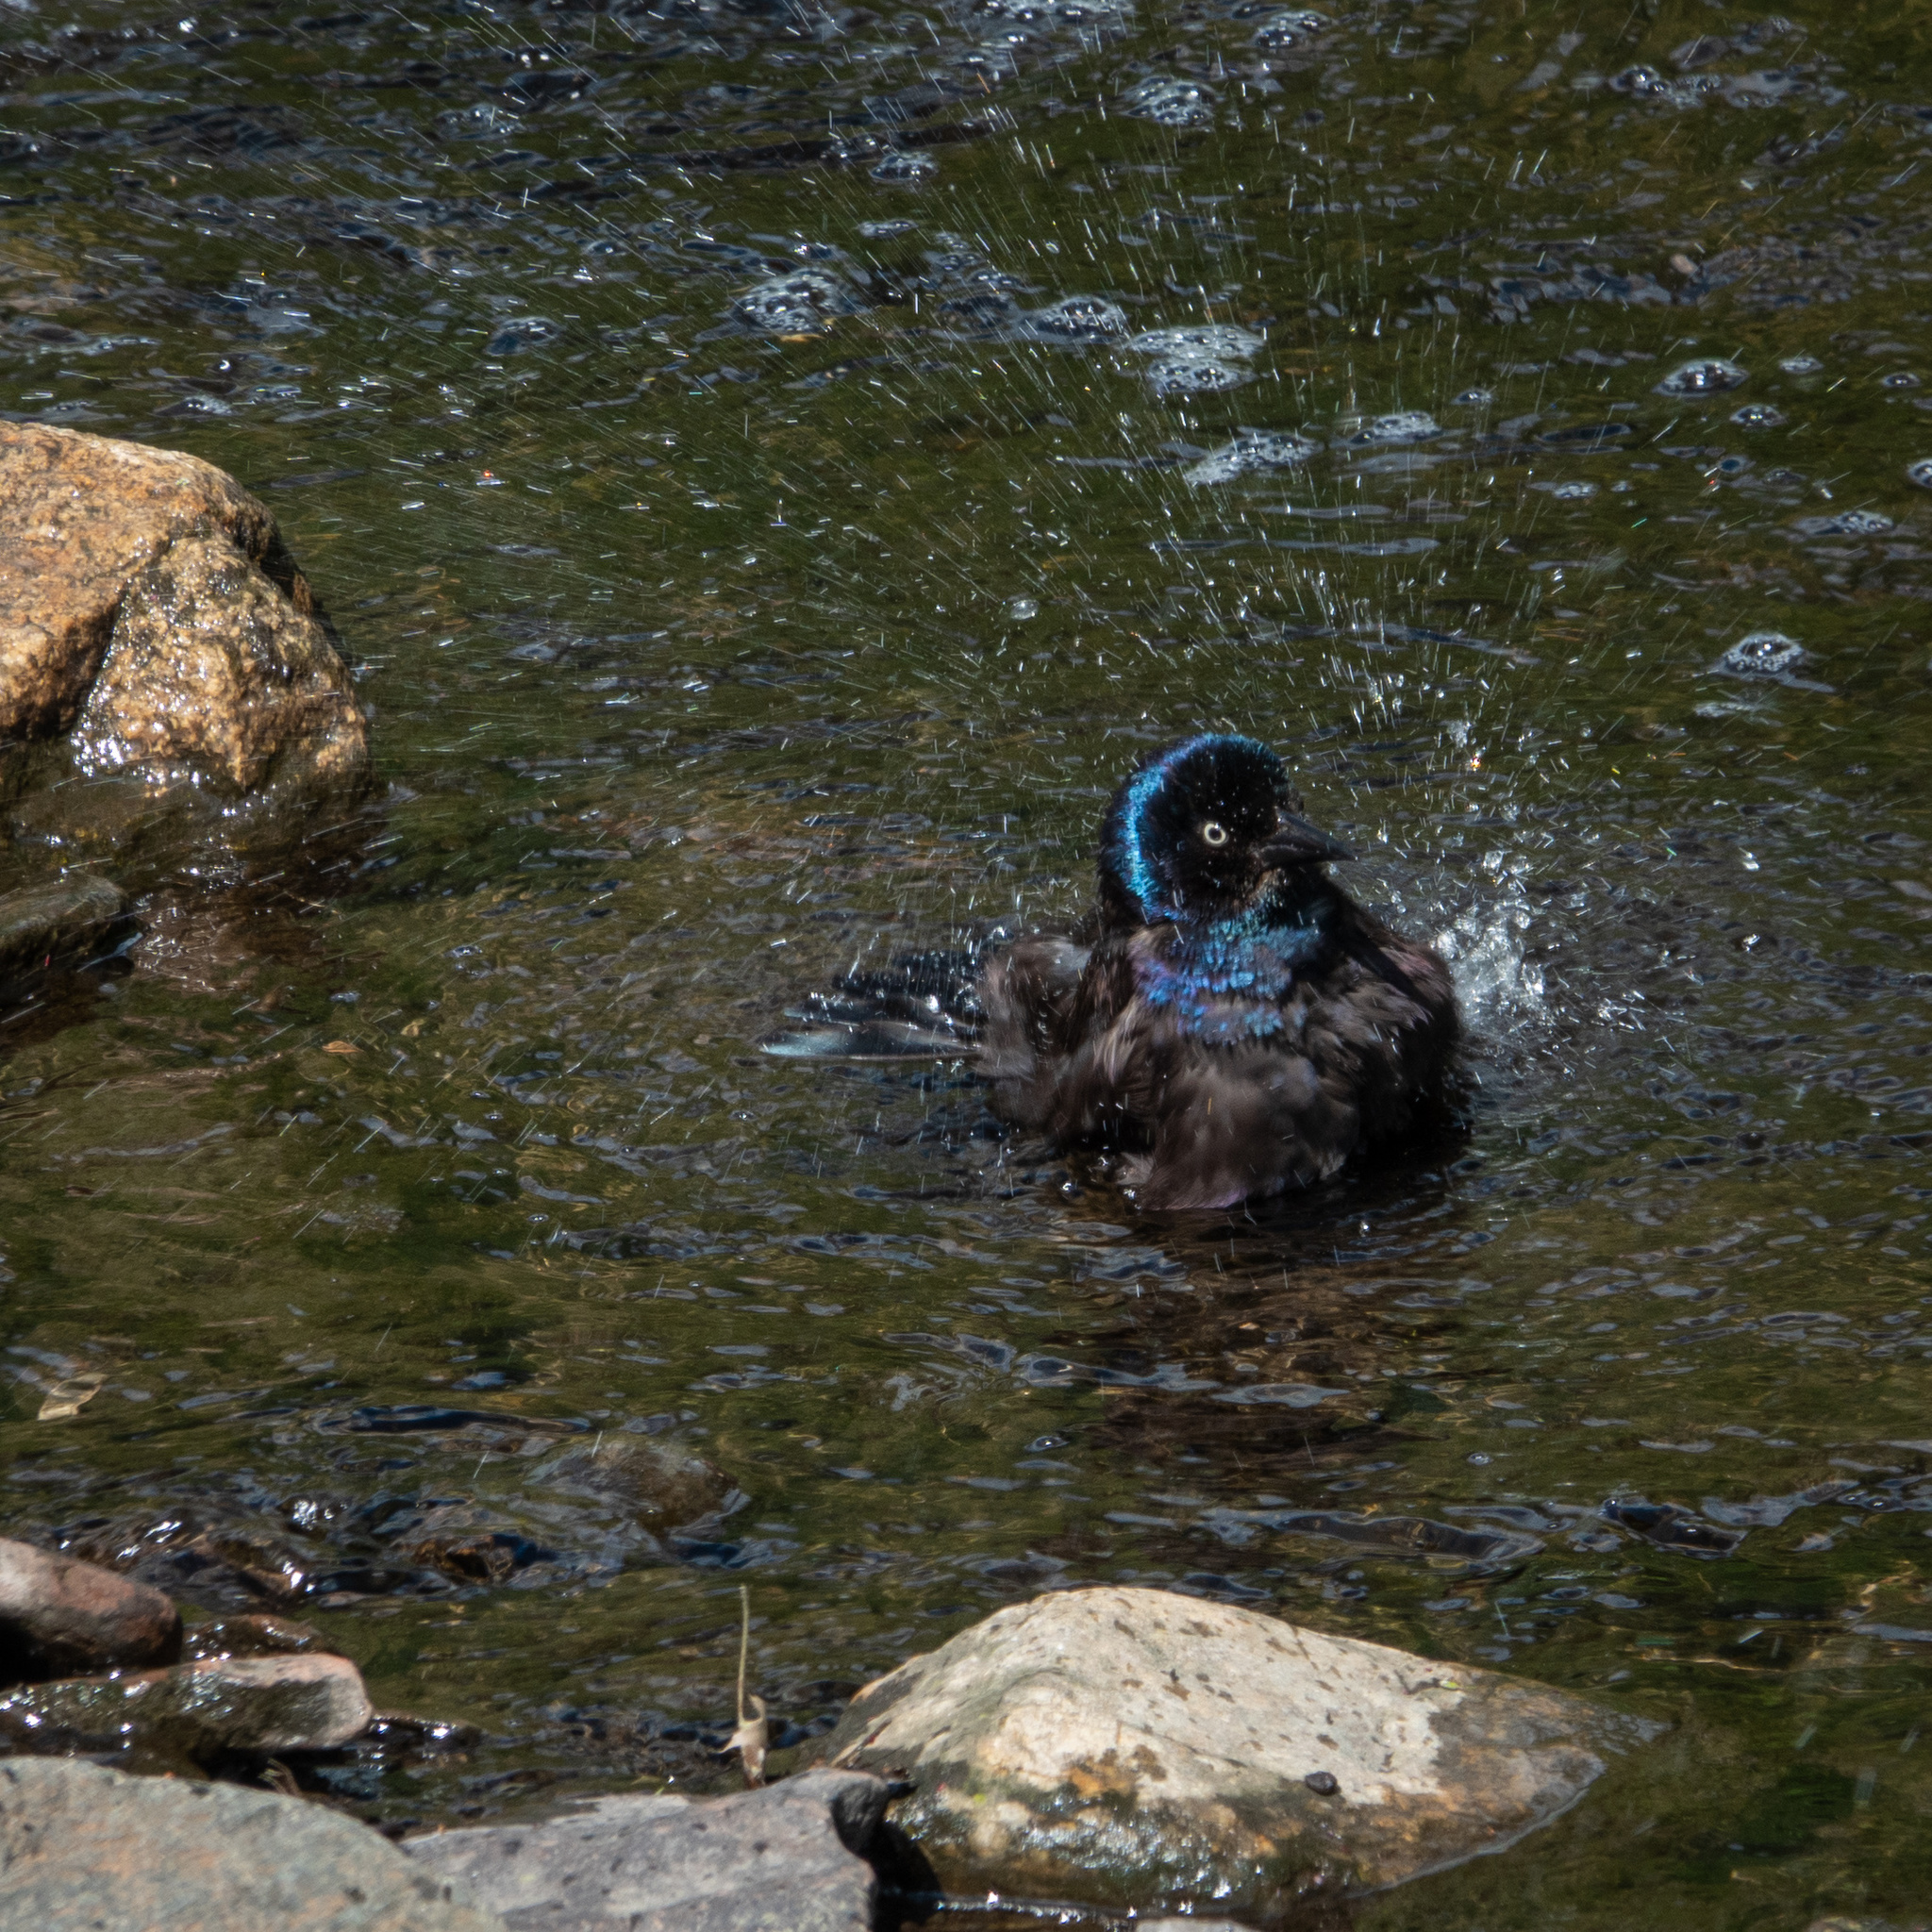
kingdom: Animalia
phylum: Chordata
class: Aves
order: Passeriformes
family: Icteridae
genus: Quiscalus
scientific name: Quiscalus quiscula
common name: Common grackle
